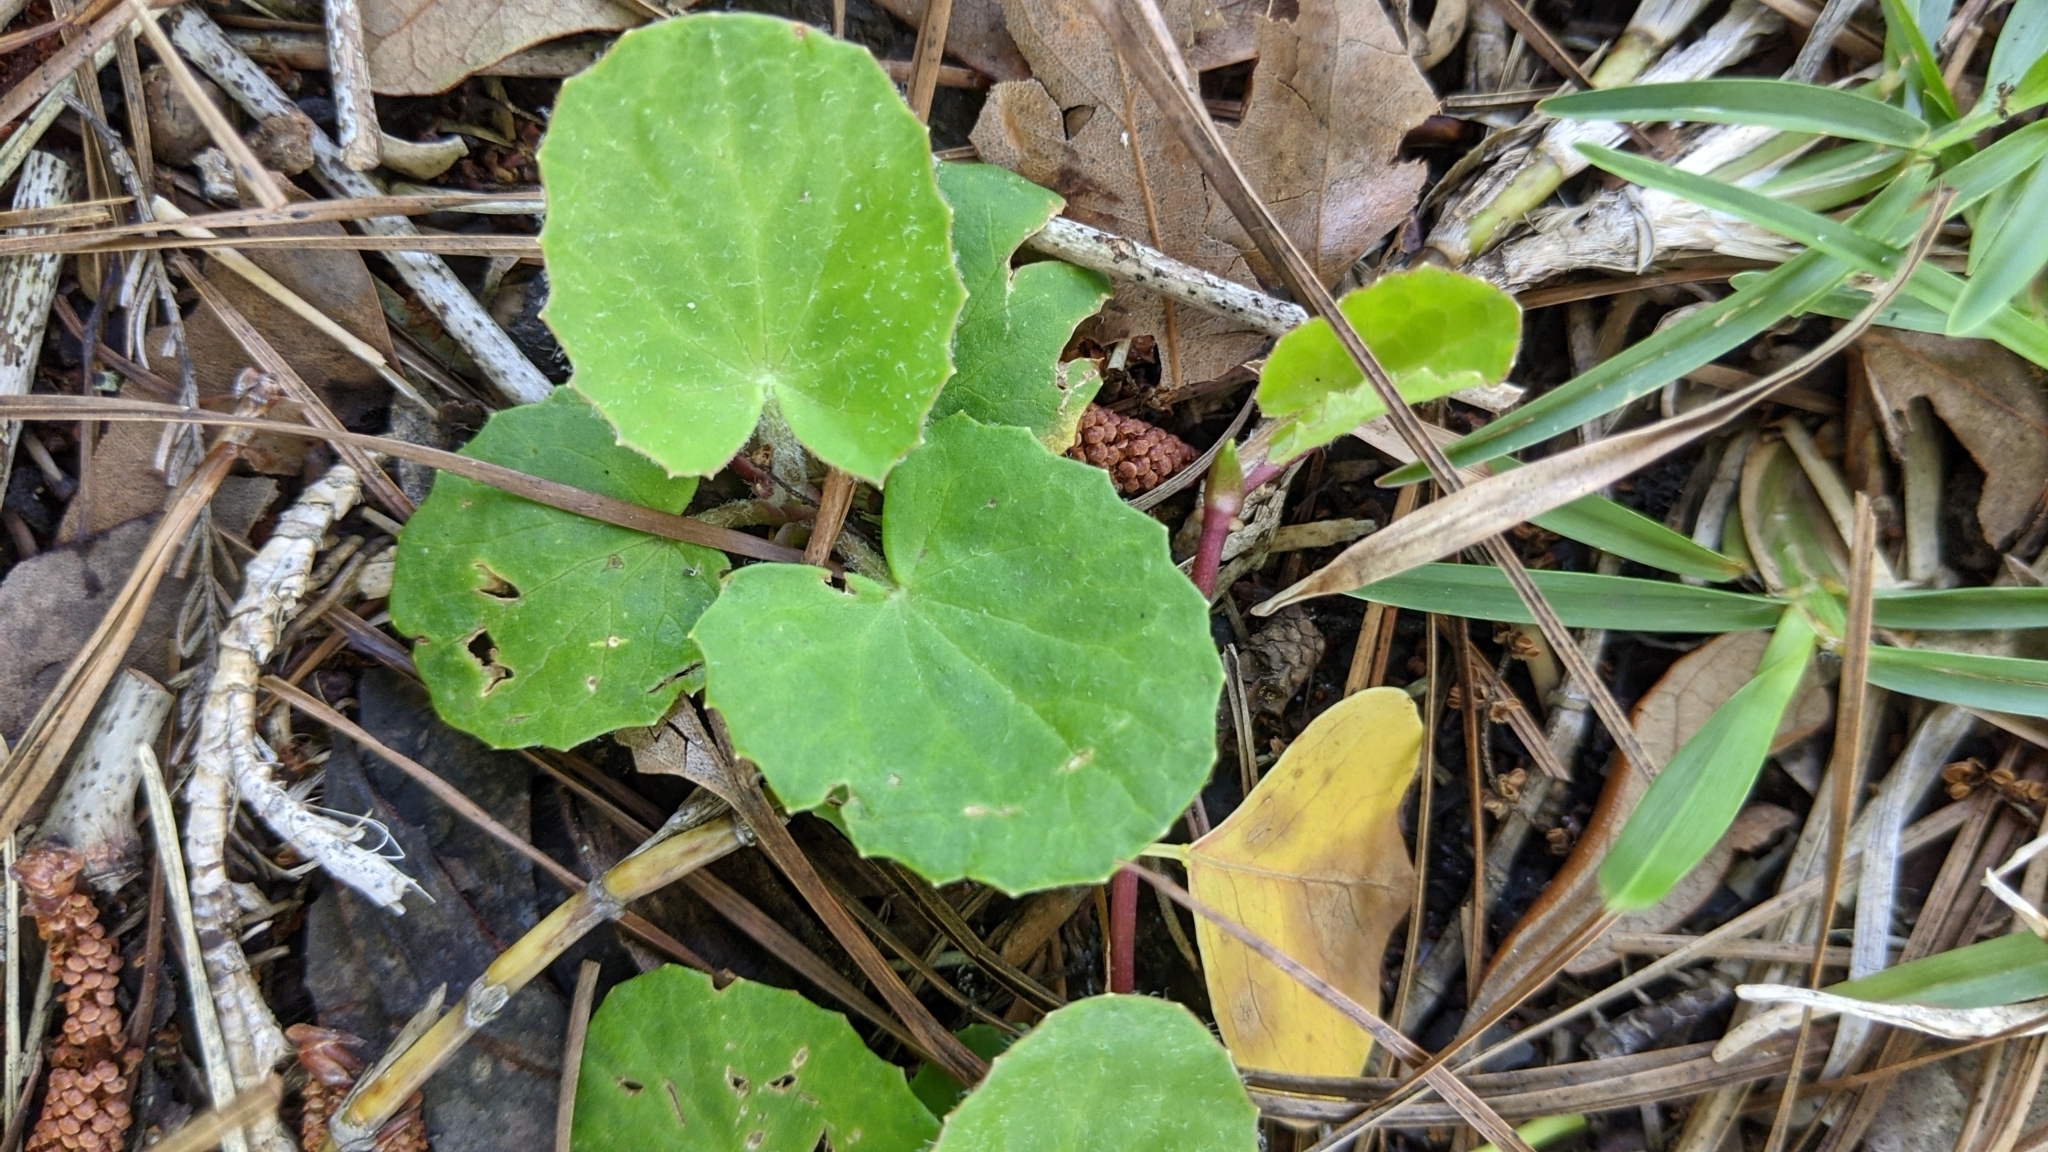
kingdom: Plantae
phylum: Tracheophyta
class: Magnoliopsida
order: Apiales
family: Apiaceae
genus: Centella
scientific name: Centella erecta
